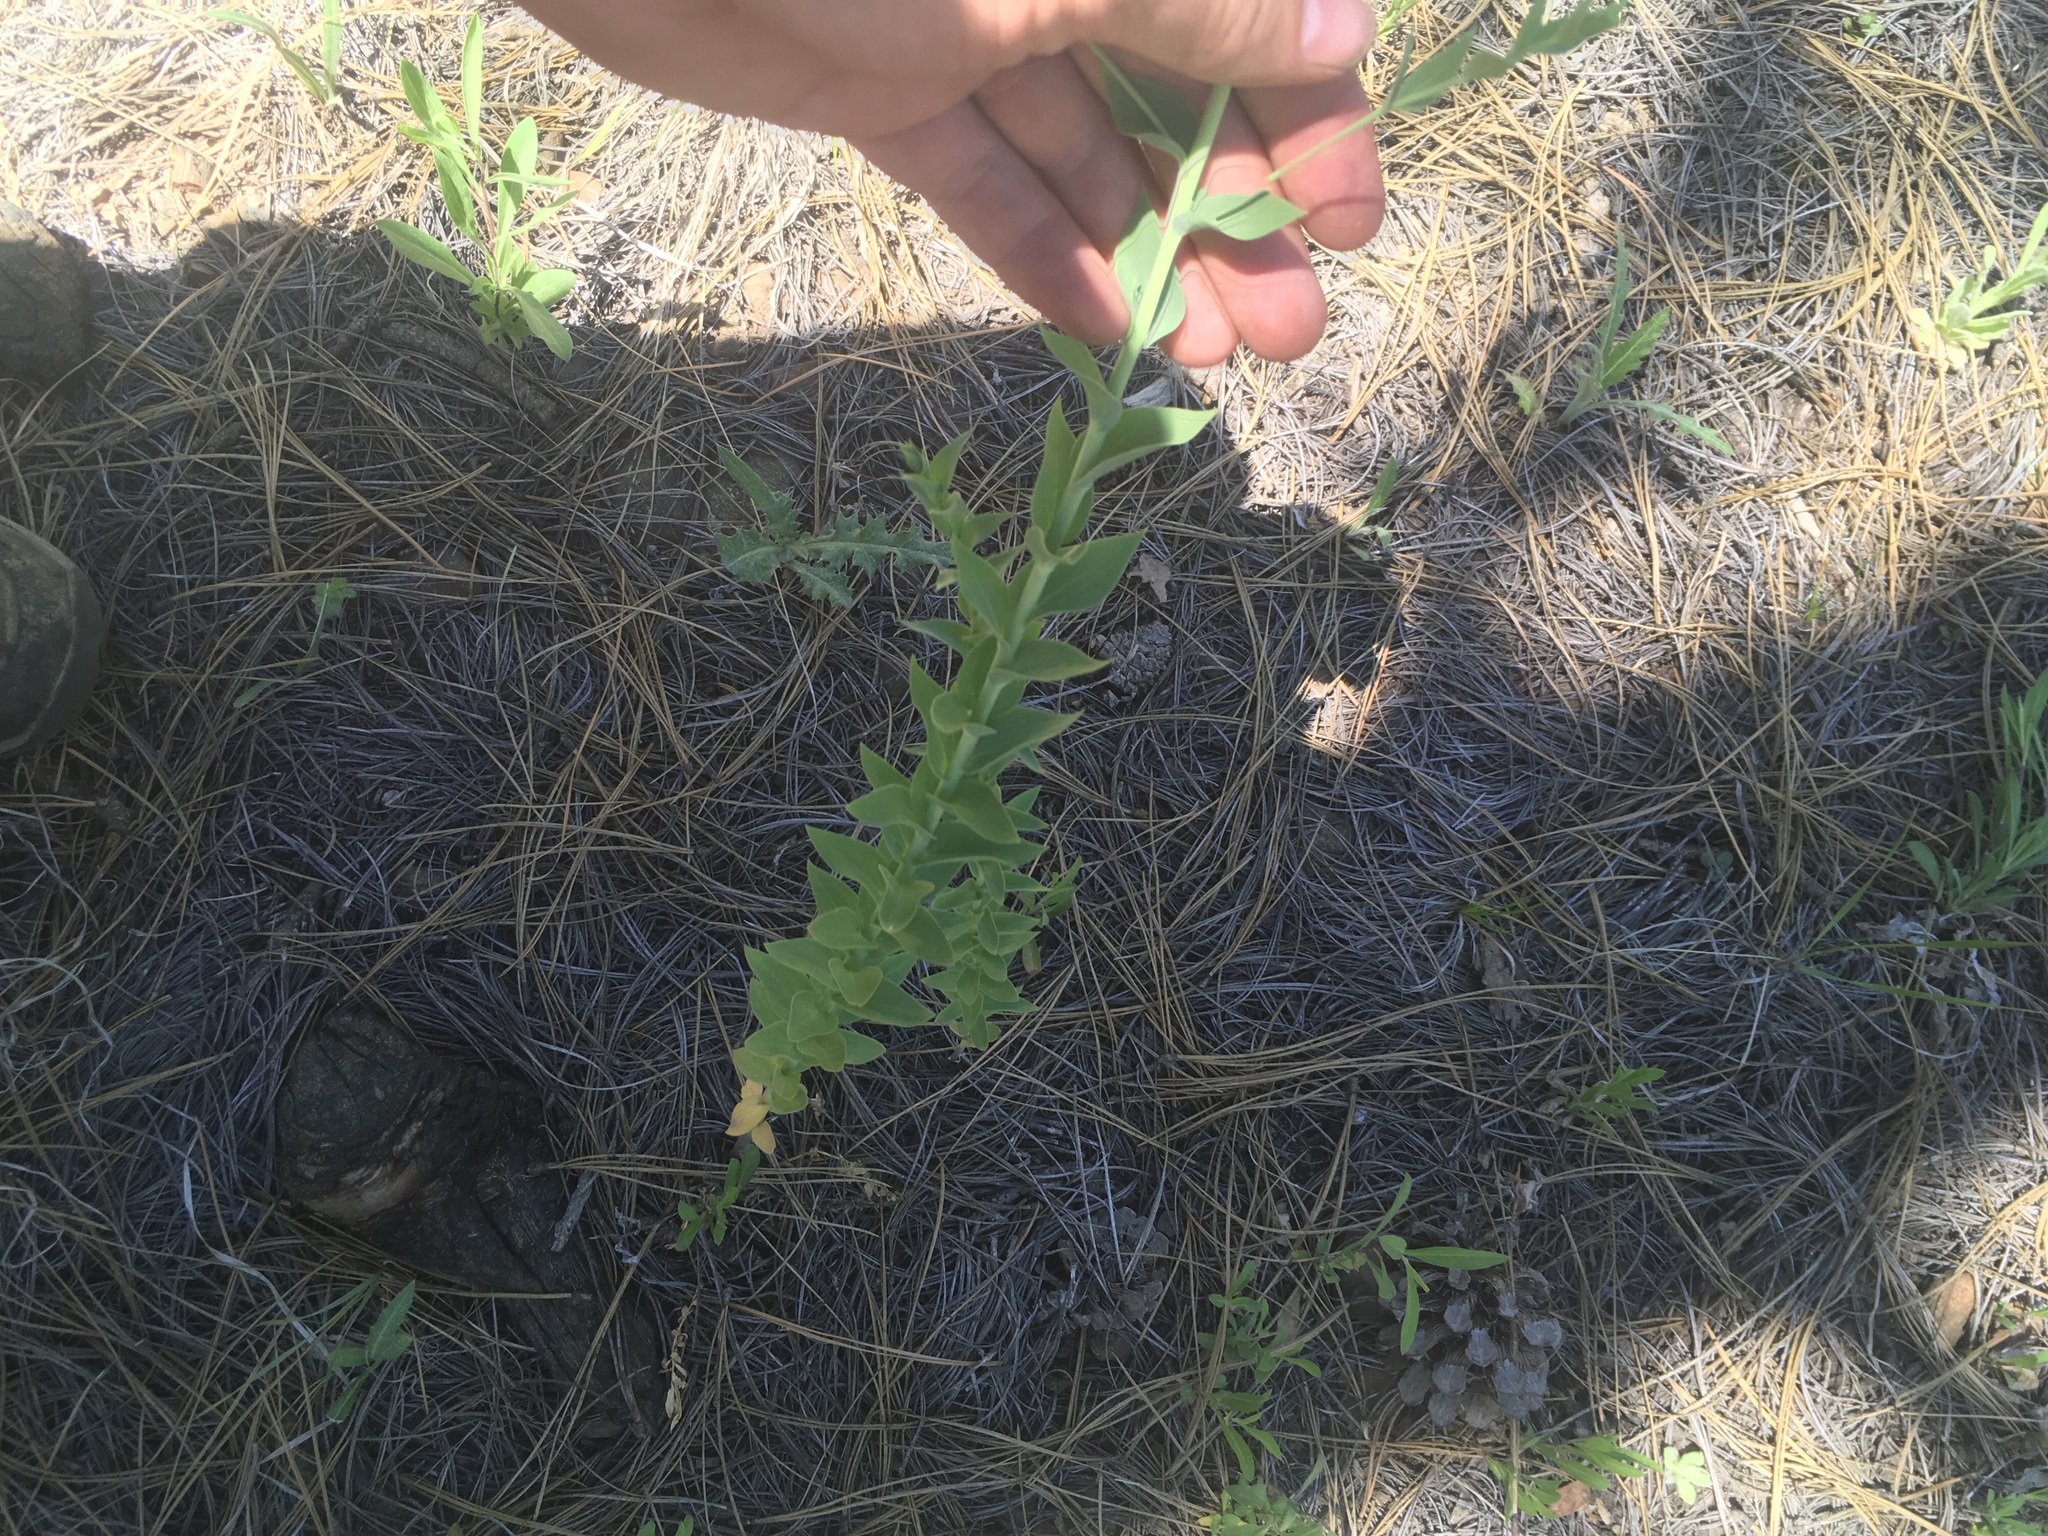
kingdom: Plantae
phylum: Tracheophyta
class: Magnoliopsida
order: Lamiales
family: Plantaginaceae
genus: Linaria
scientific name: Linaria dalmatica
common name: Dalmatian toadflax
